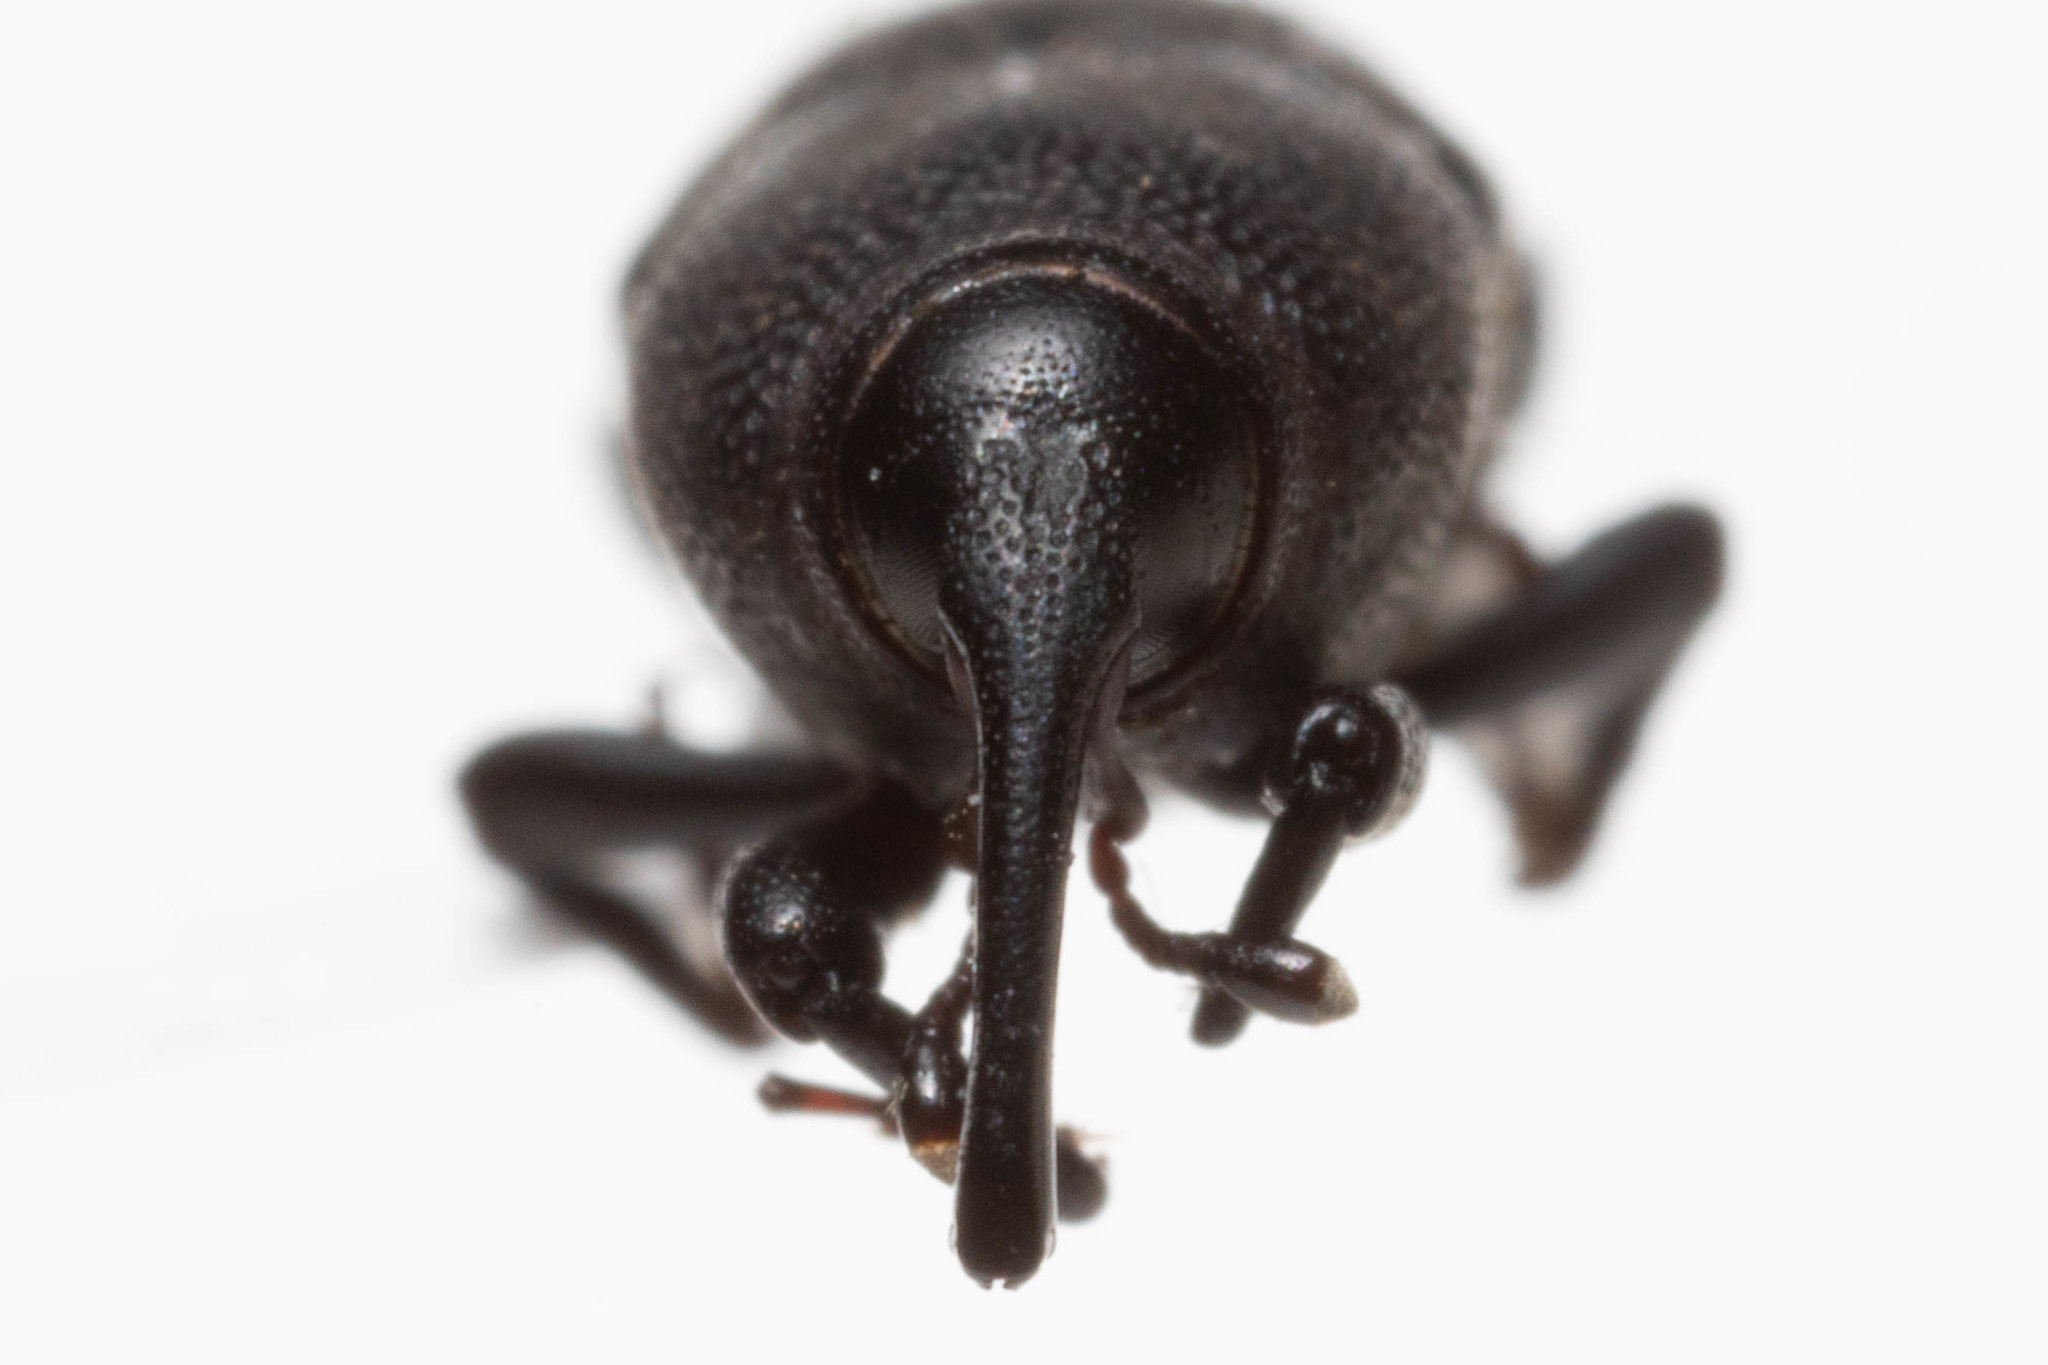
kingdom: Animalia
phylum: Arthropoda
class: Insecta
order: Coleoptera
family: Dryophthoridae
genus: Sphenophorus
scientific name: Sphenophorus interstitialis
